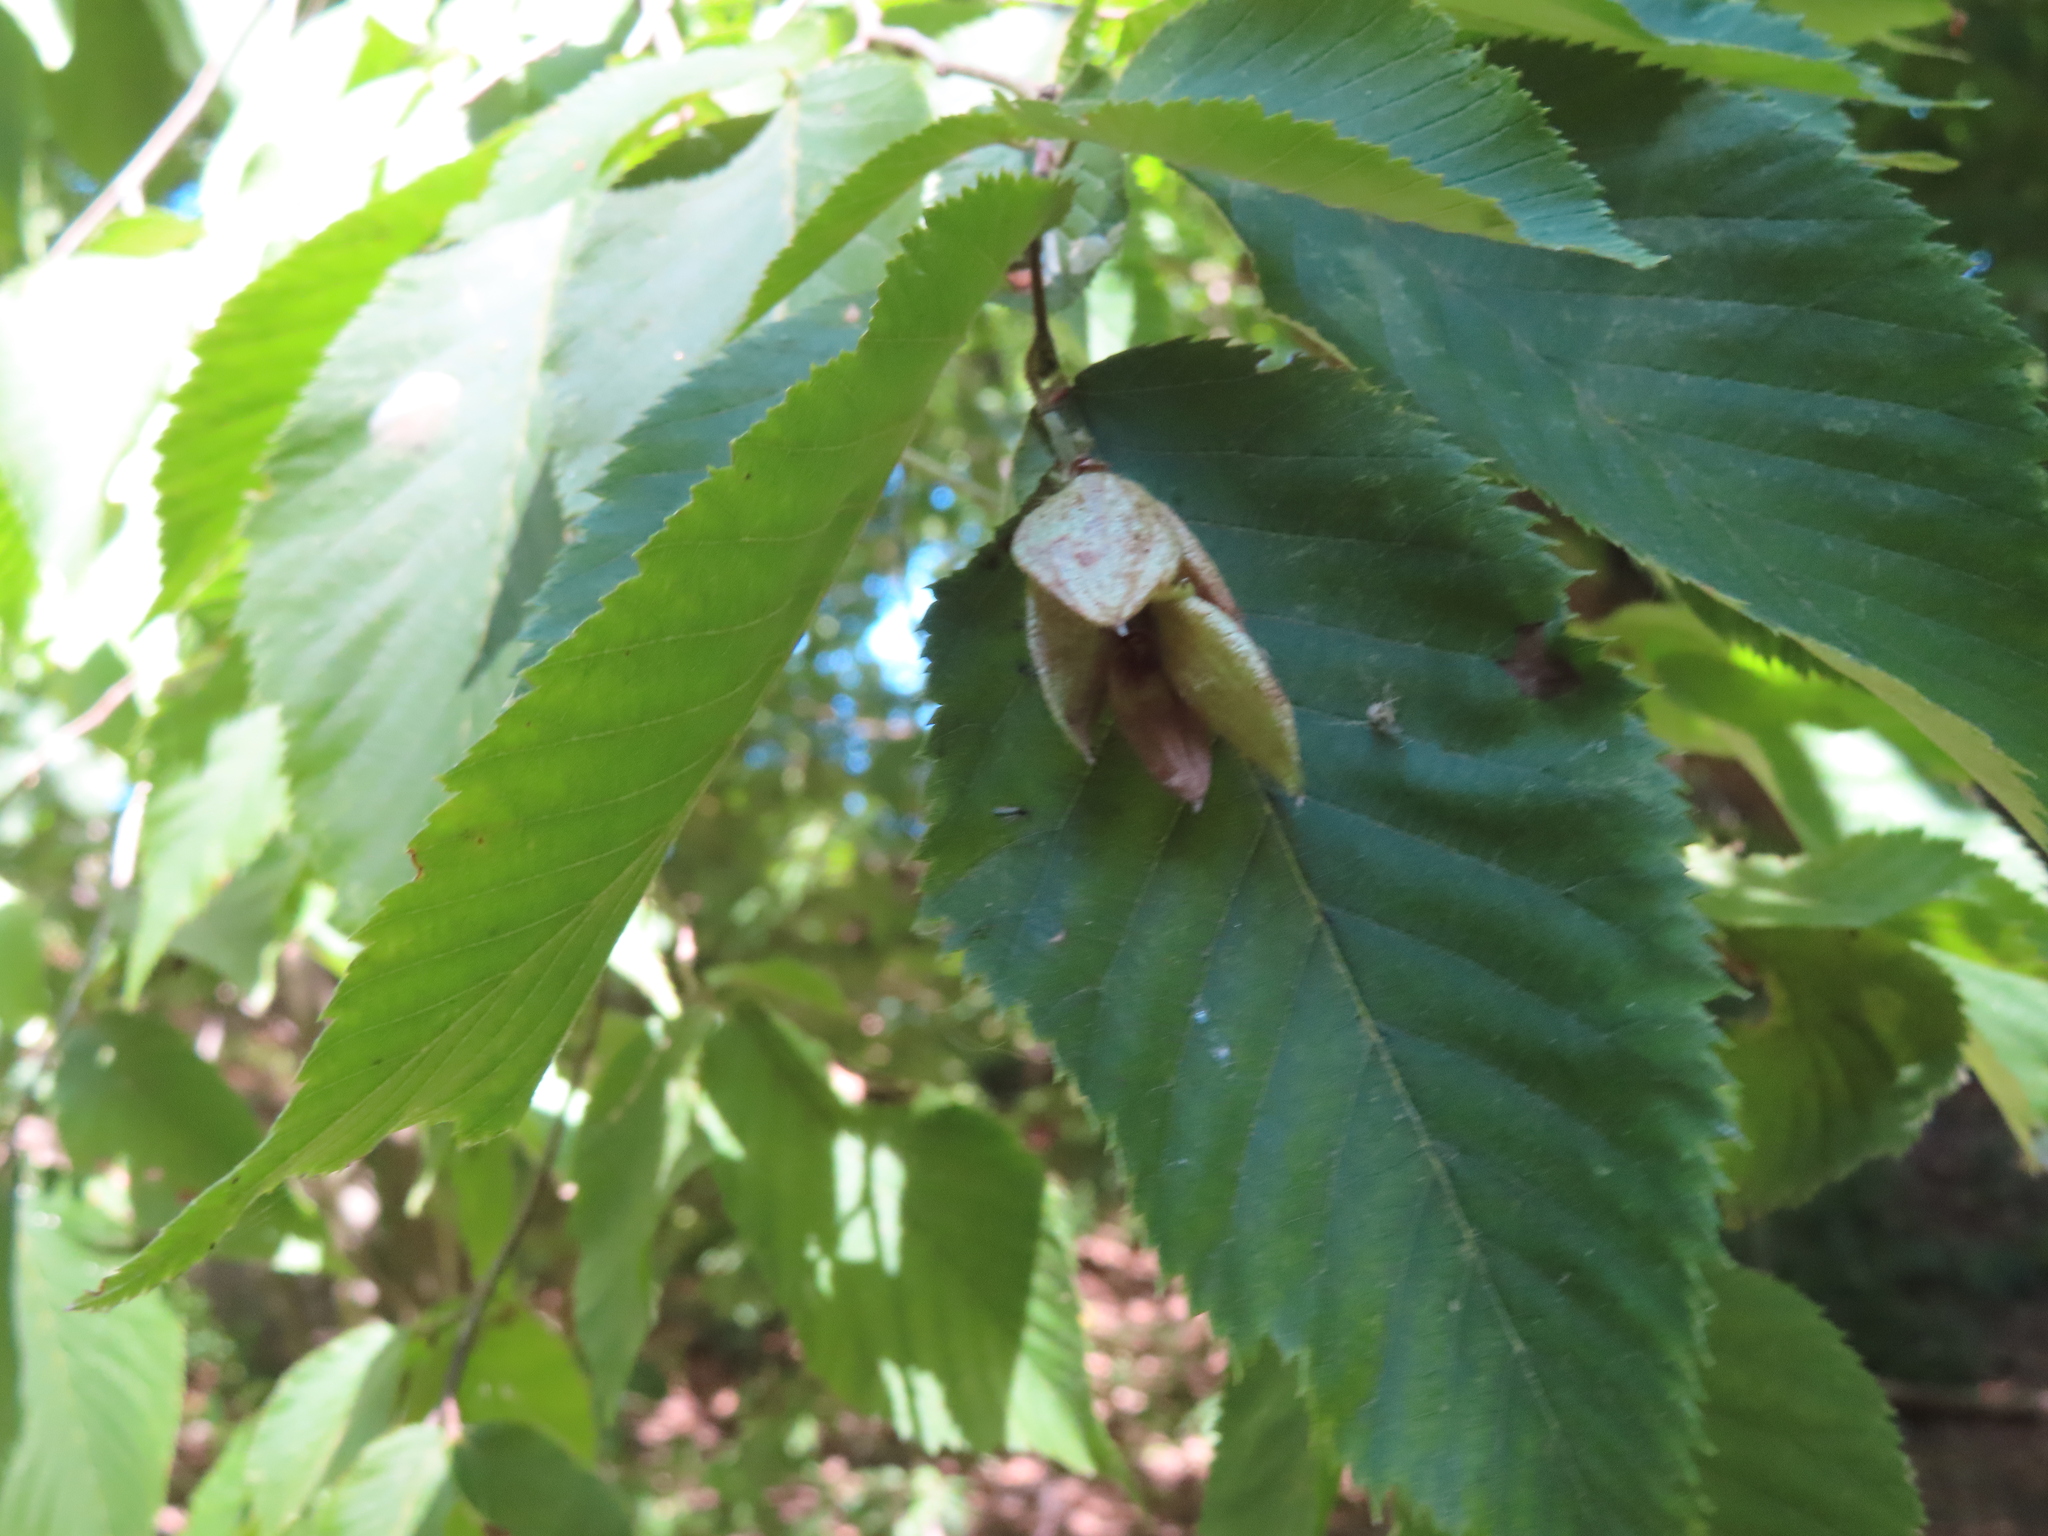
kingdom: Plantae
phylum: Tracheophyta
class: Magnoliopsida
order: Fagales
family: Betulaceae
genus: Ostrya
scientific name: Ostrya virginiana
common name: Ironwood
